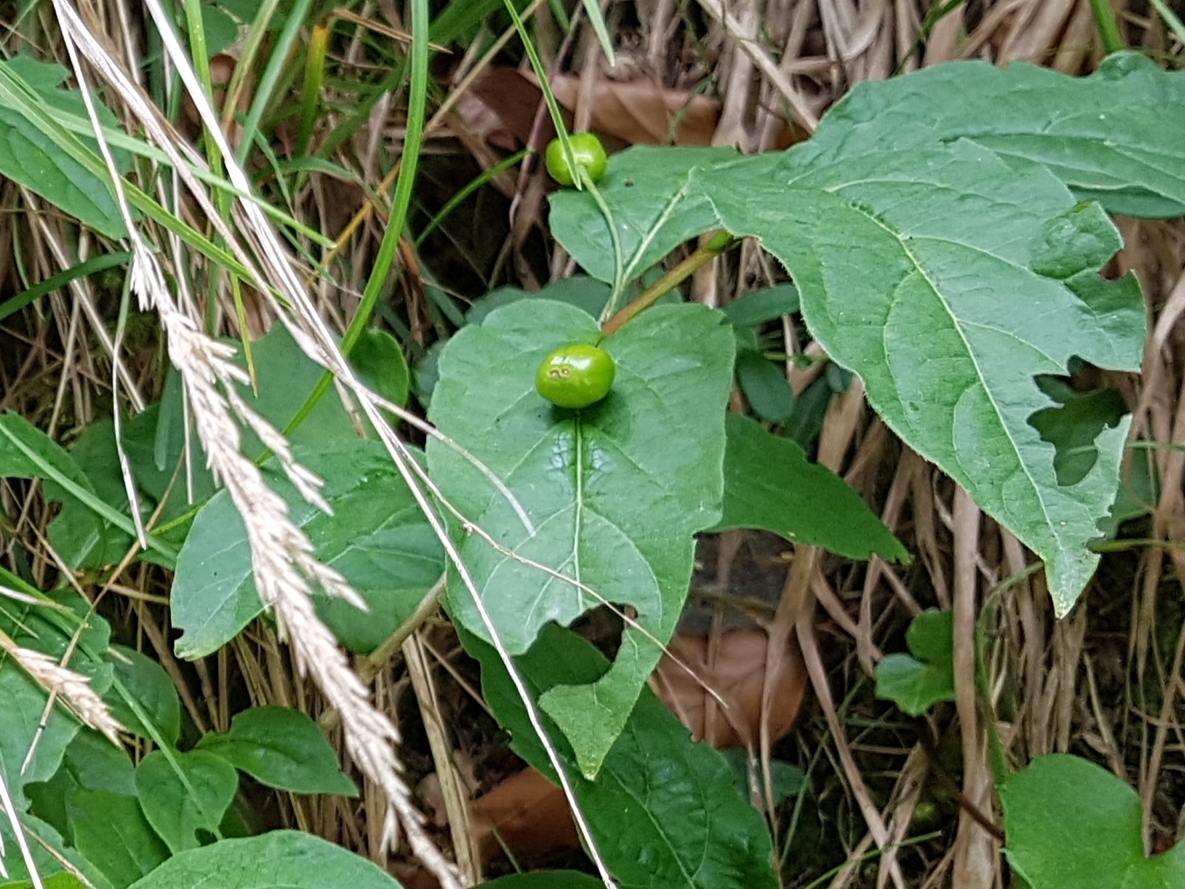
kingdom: Plantae
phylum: Tracheophyta
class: Magnoliopsida
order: Dipsacales
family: Caprifoliaceae
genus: Lonicera
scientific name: Lonicera alpigena
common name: Alpine honeysuckle
